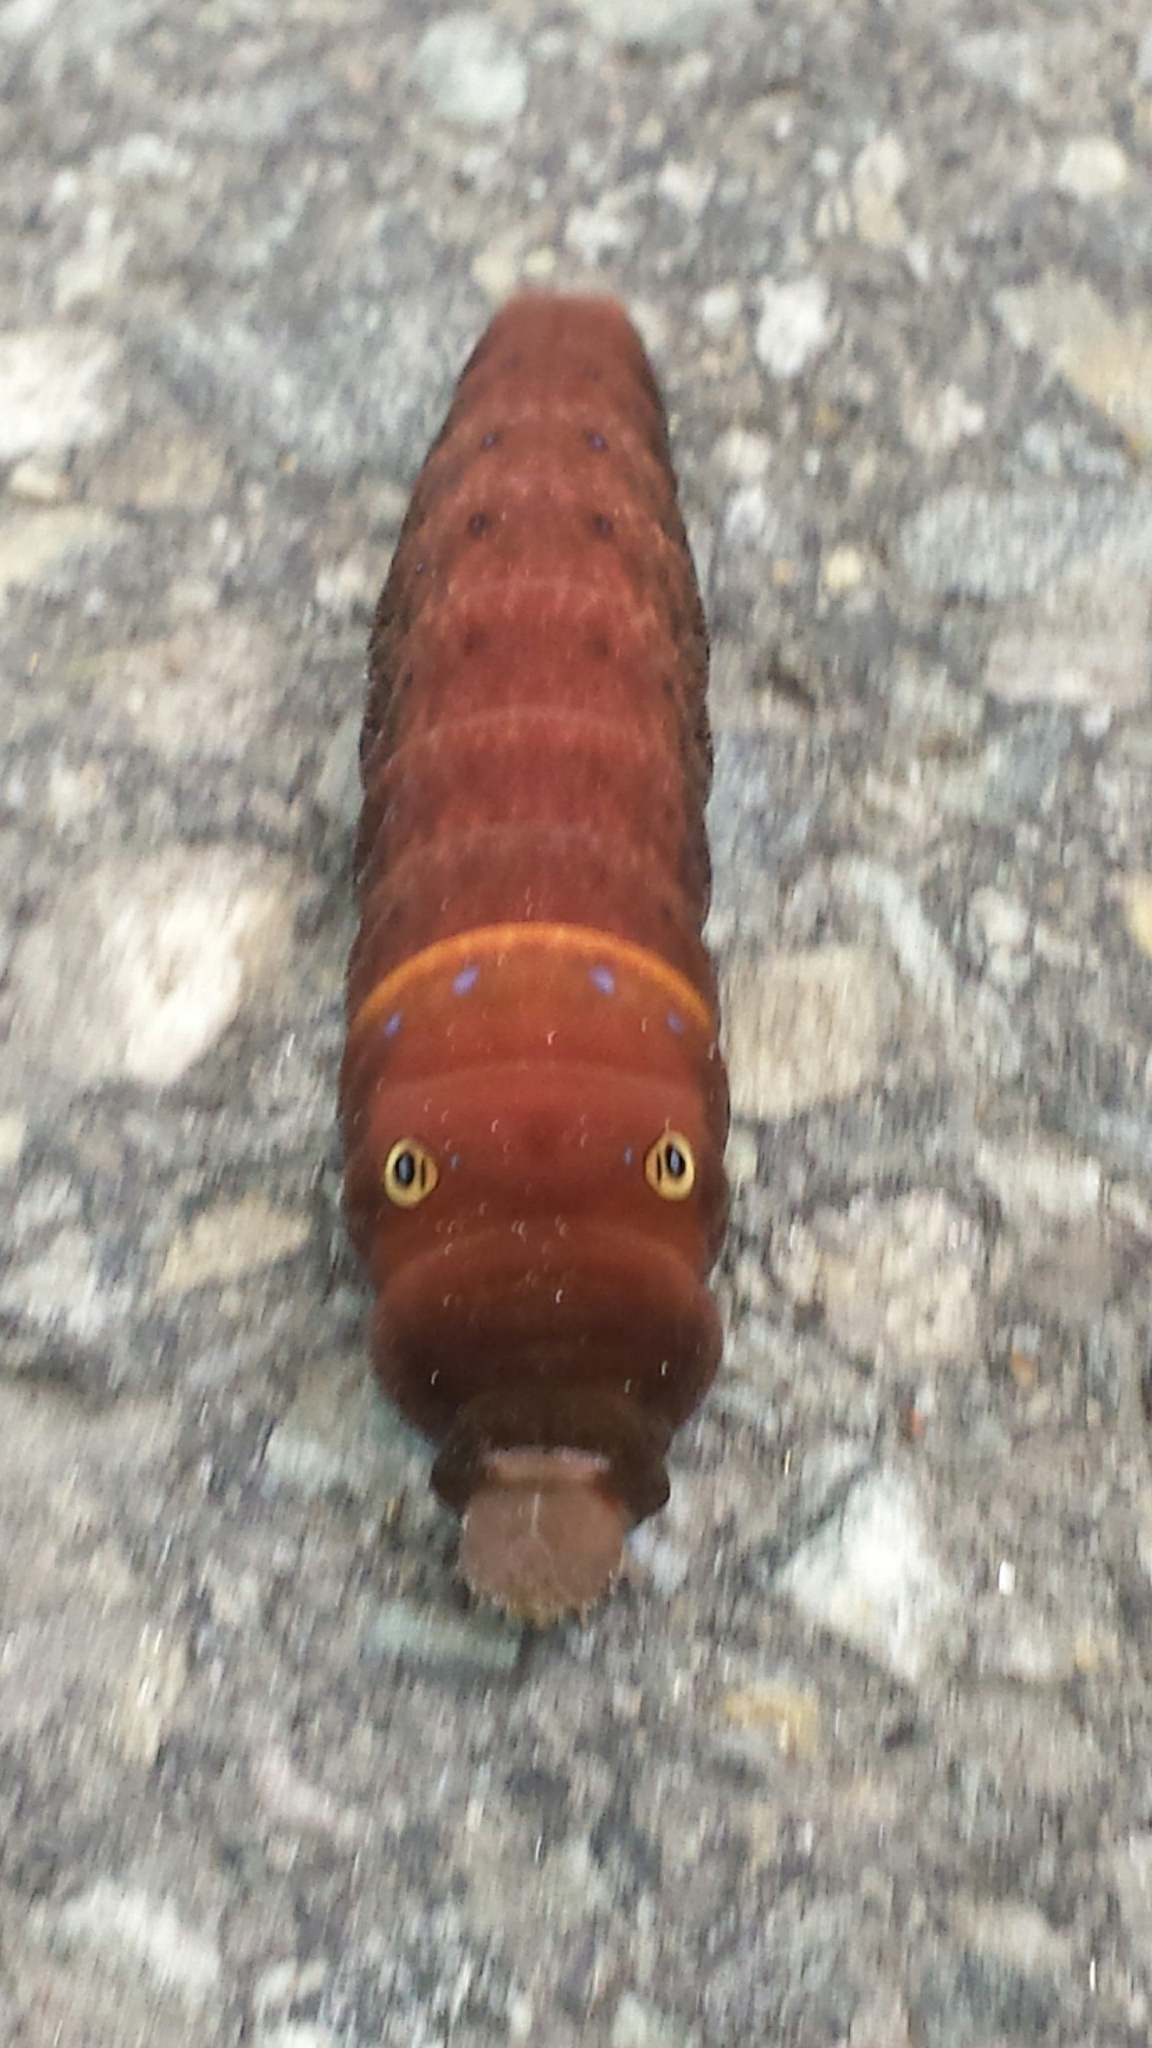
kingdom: Animalia
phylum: Arthropoda
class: Insecta
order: Lepidoptera
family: Papilionidae
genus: Papilio
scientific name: Papilio canadensis
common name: Canadian tiger swallowtail
